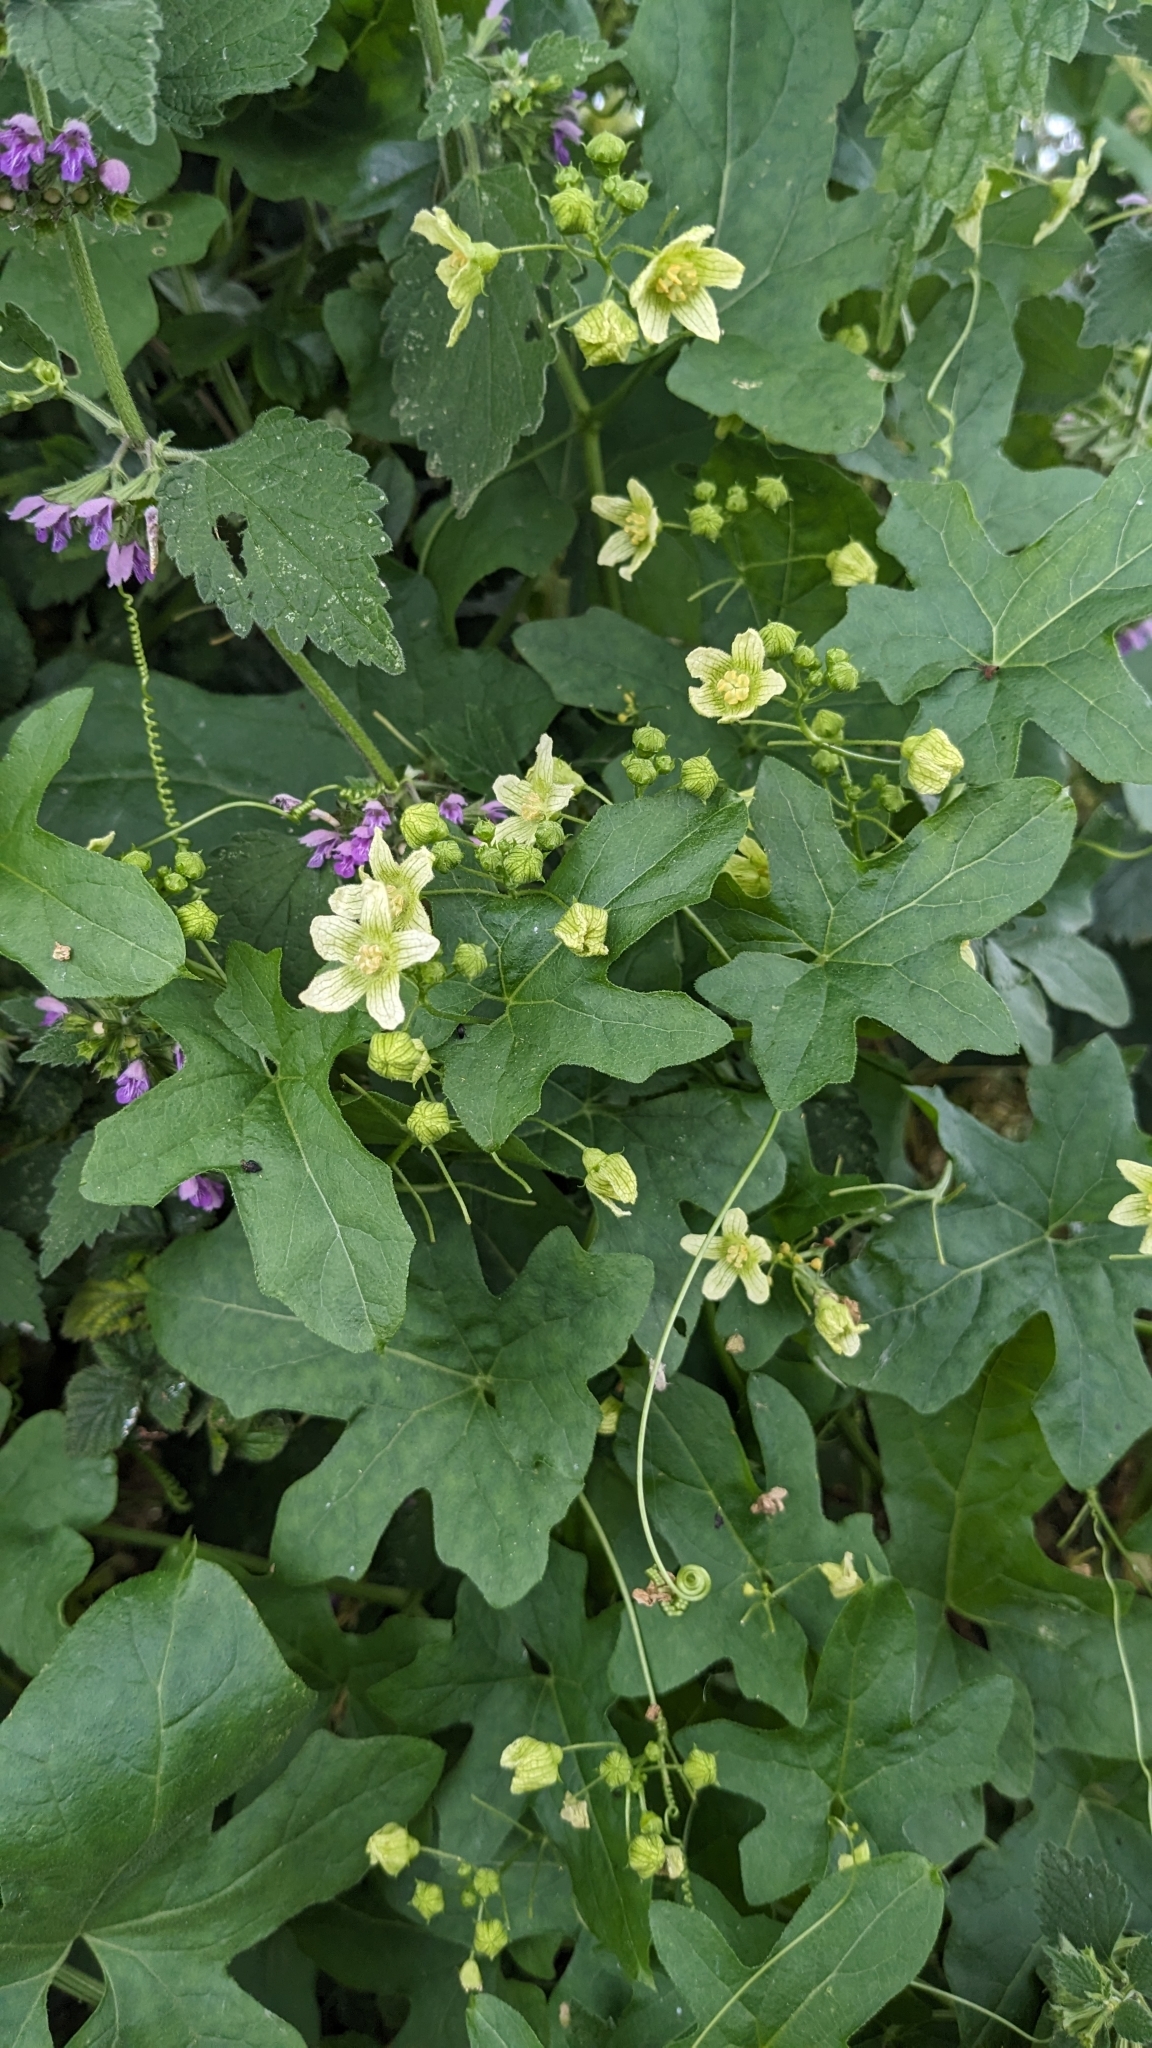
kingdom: Plantae
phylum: Tracheophyta
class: Magnoliopsida
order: Cucurbitales
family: Cucurbitaceae
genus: Bryonia
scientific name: Bryonia cretica
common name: Cretan bryony
